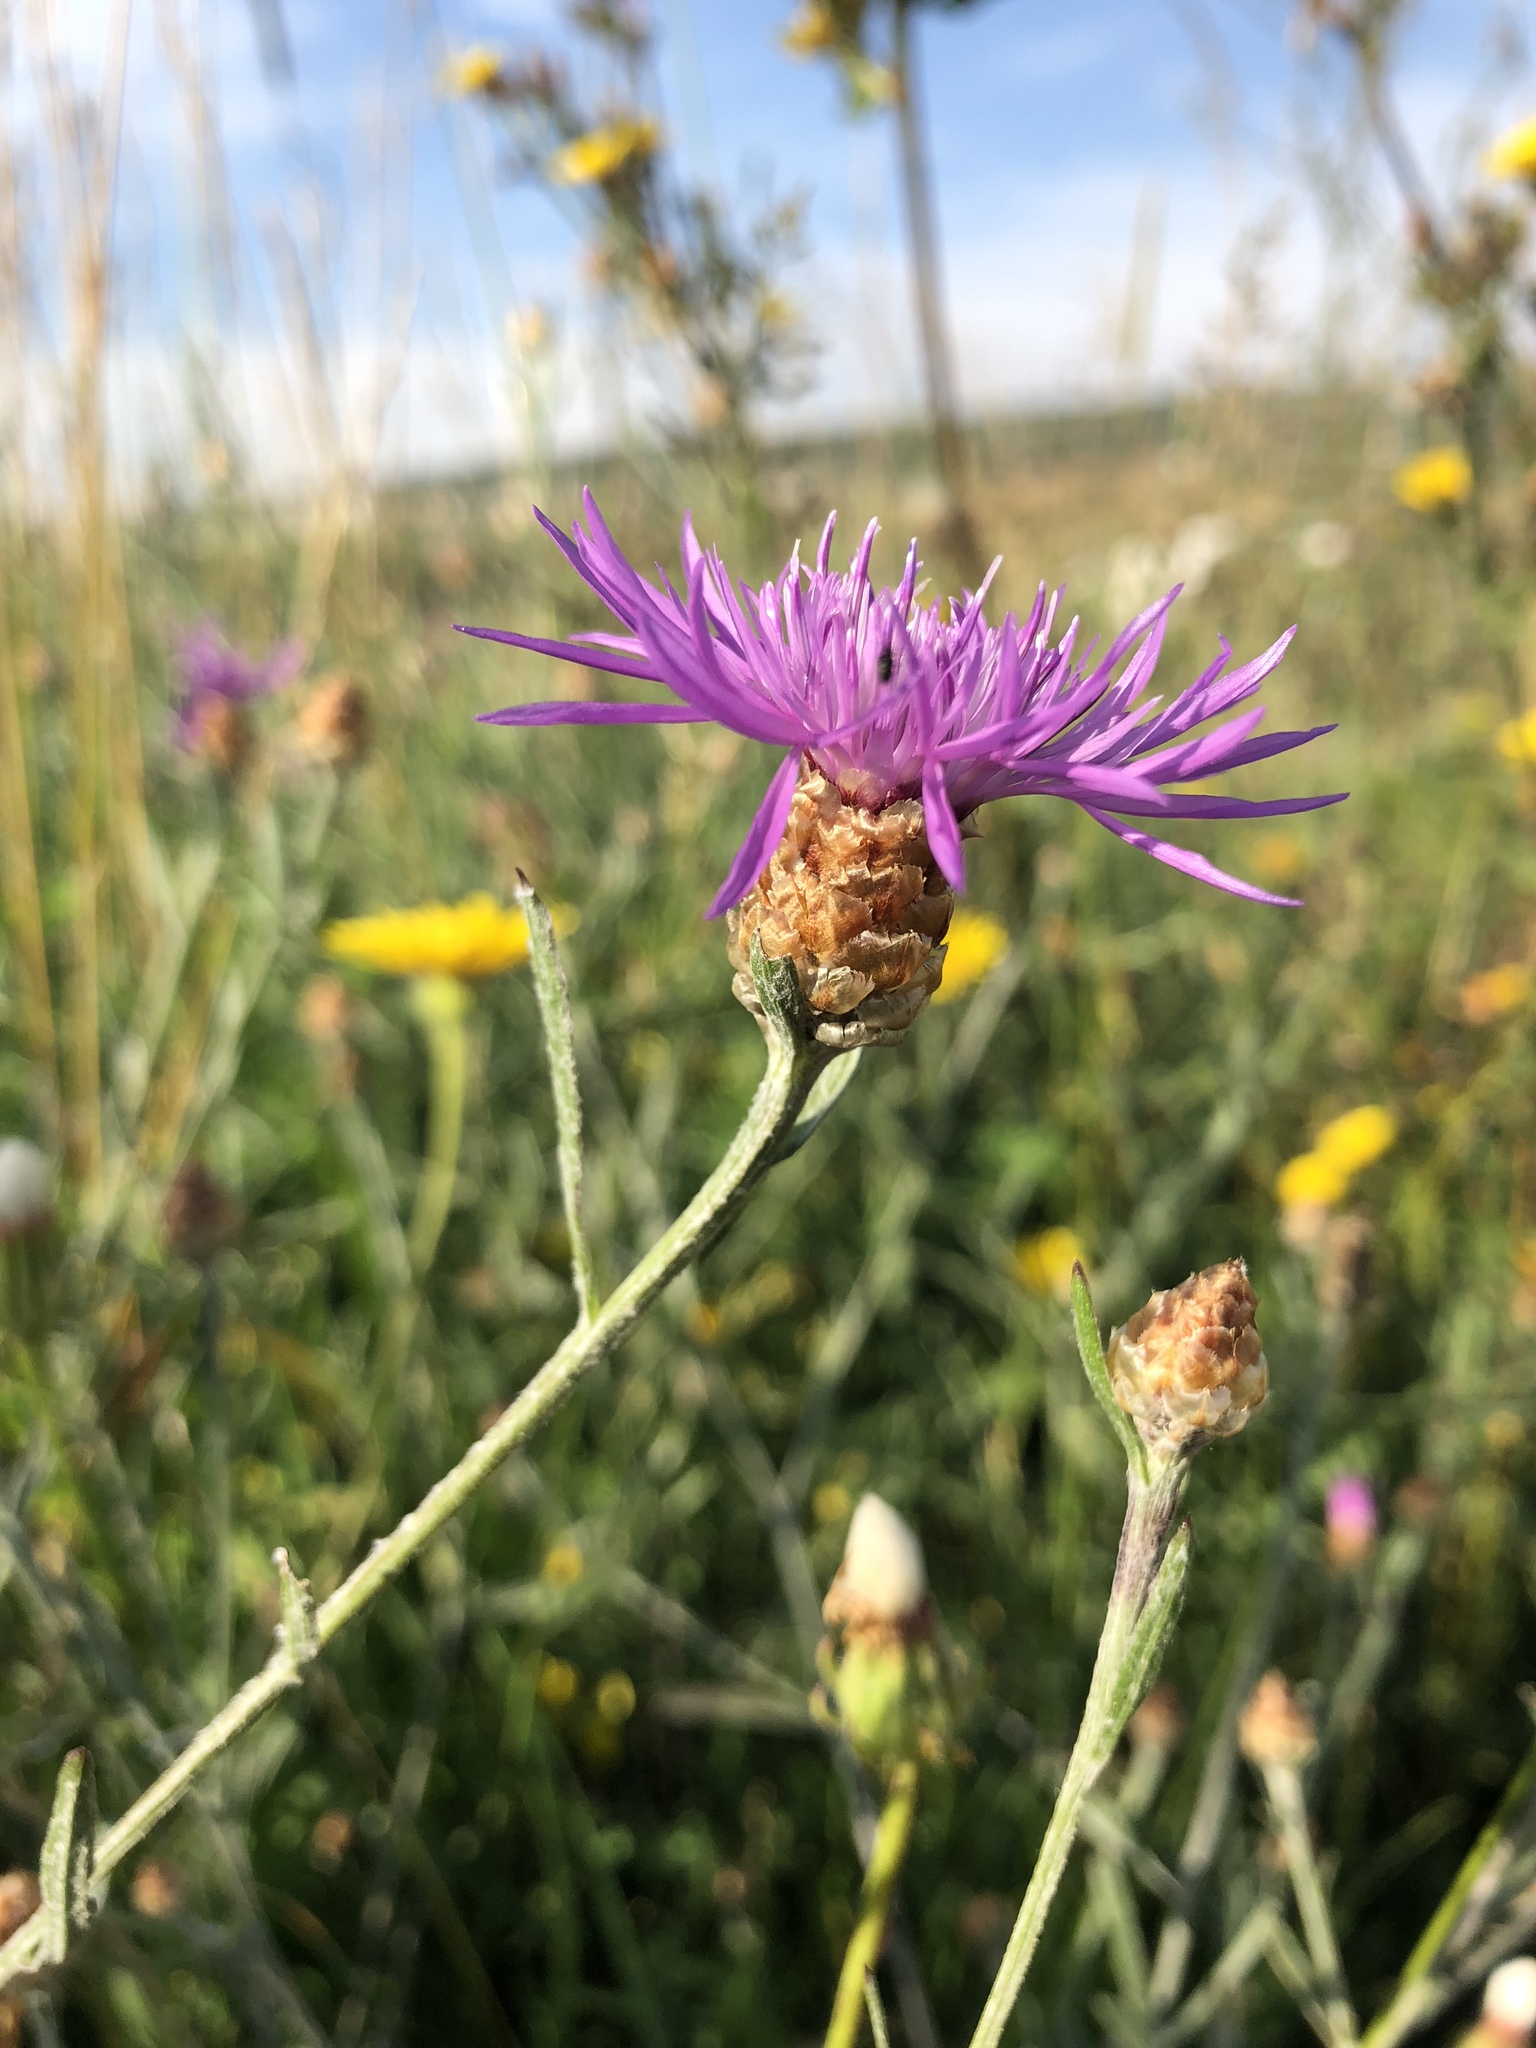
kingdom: Plantae
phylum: Tracheophyta
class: Magnoliopsida
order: Asterales
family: Asteraceae
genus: Centaurea
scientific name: Centaurea jacea
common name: Brown knapweed
